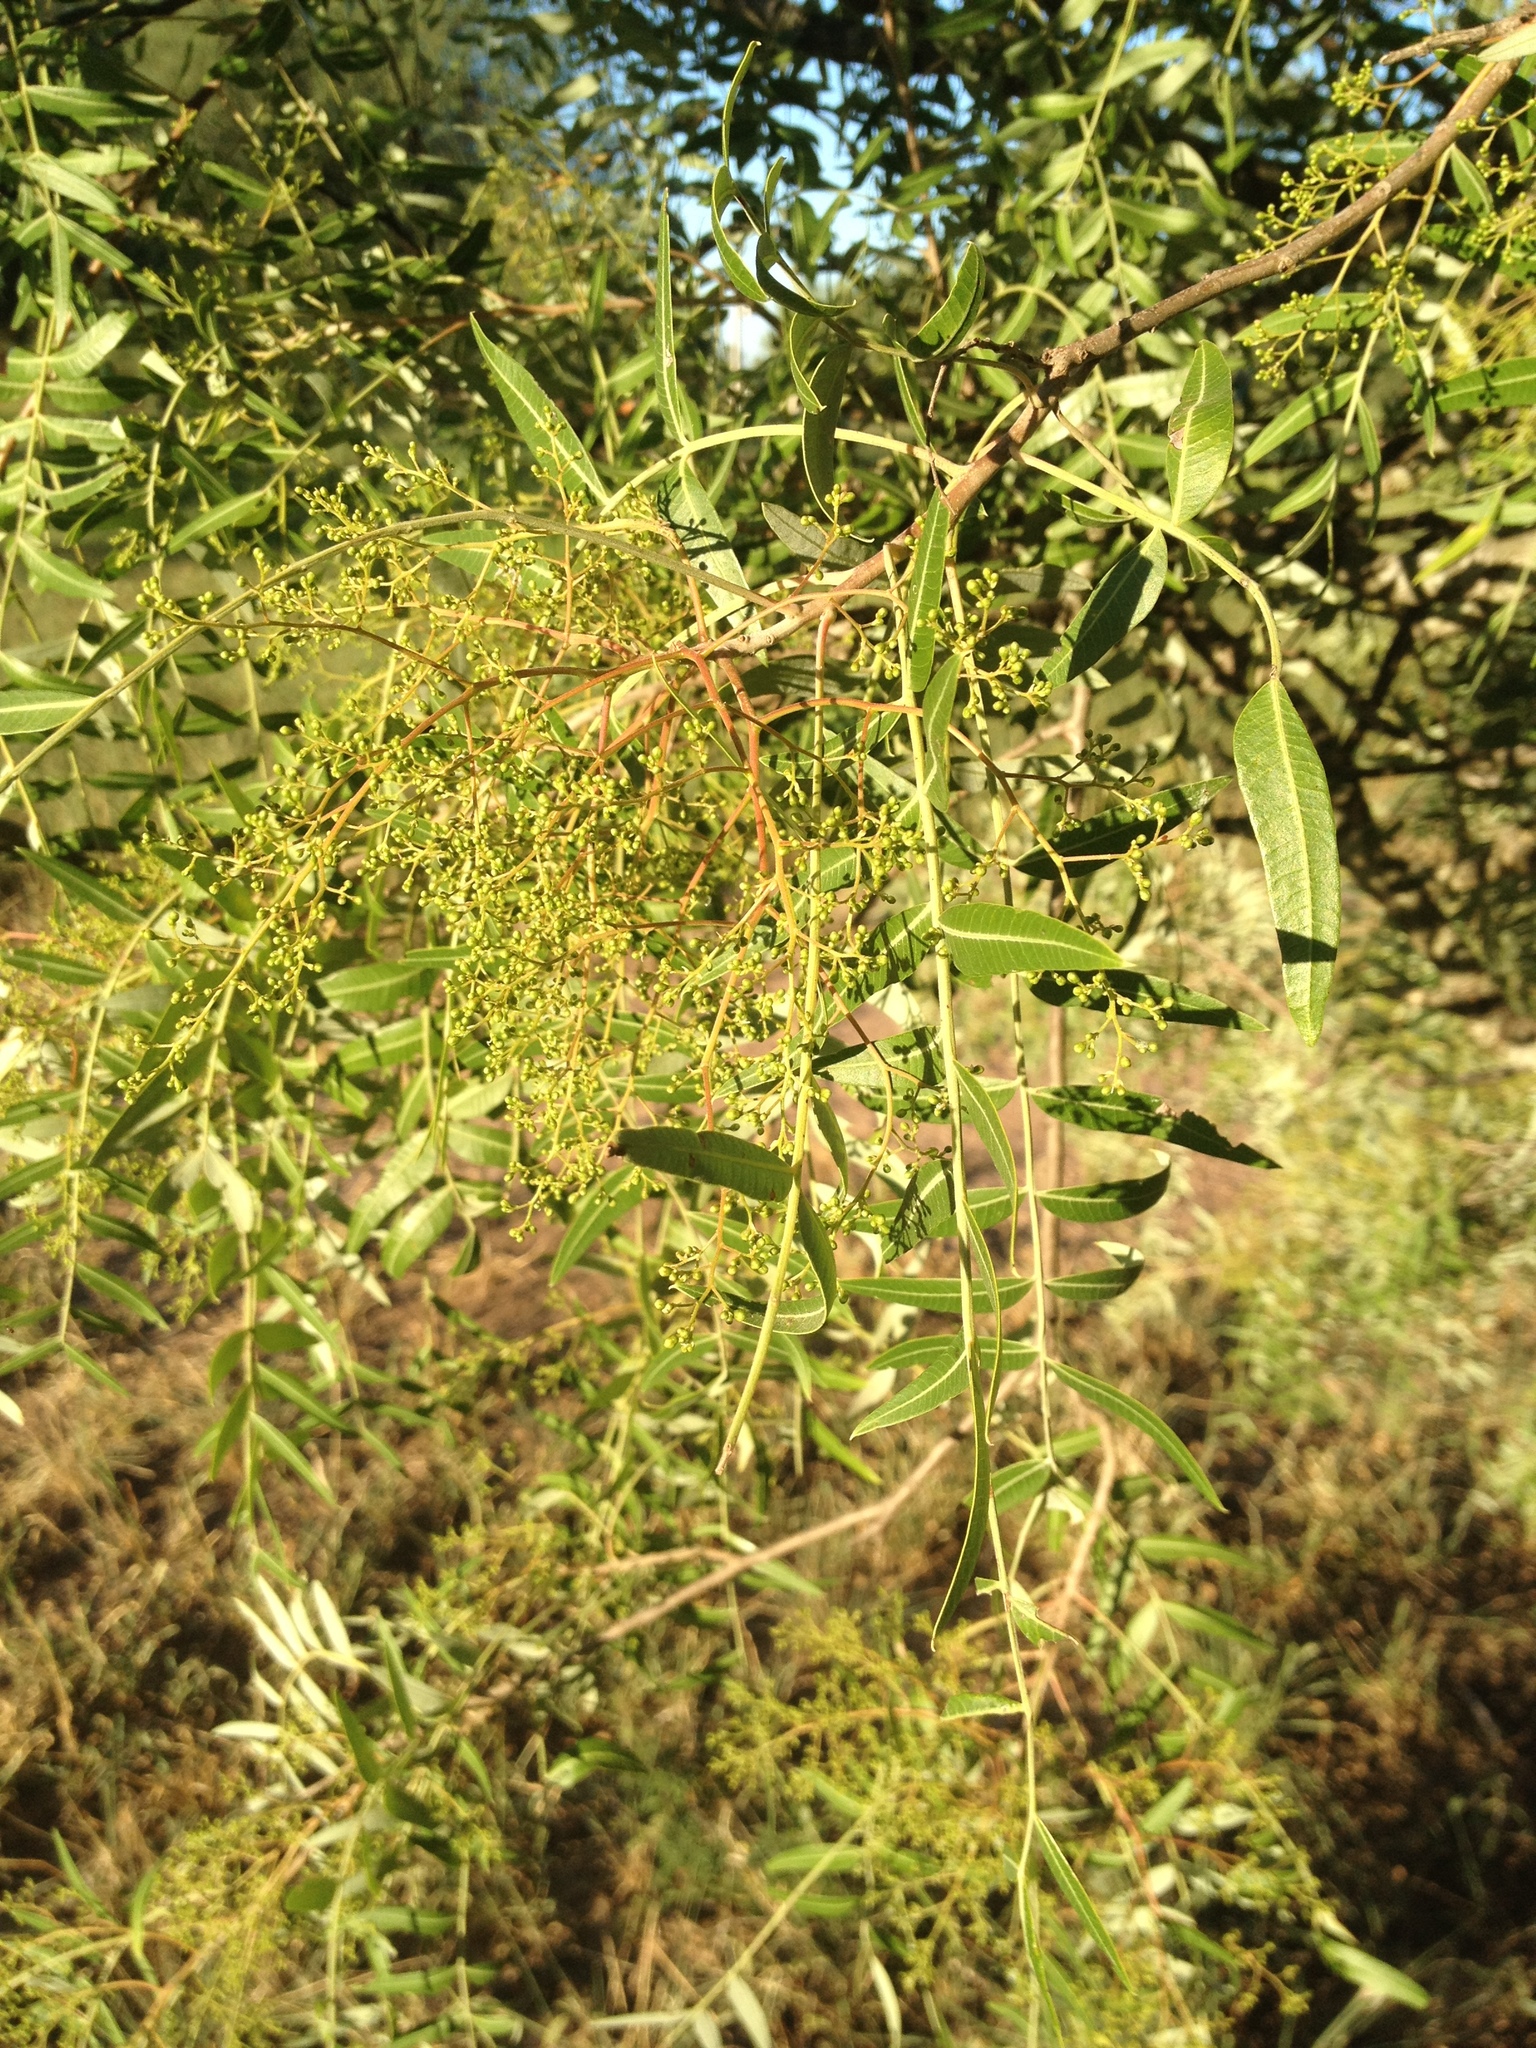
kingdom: Plantae
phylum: Tracheophyta
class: Magnoliopsida
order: Sapindales
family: Anacardiaceae
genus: Schinopsis
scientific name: Schinopsis lorentzii
